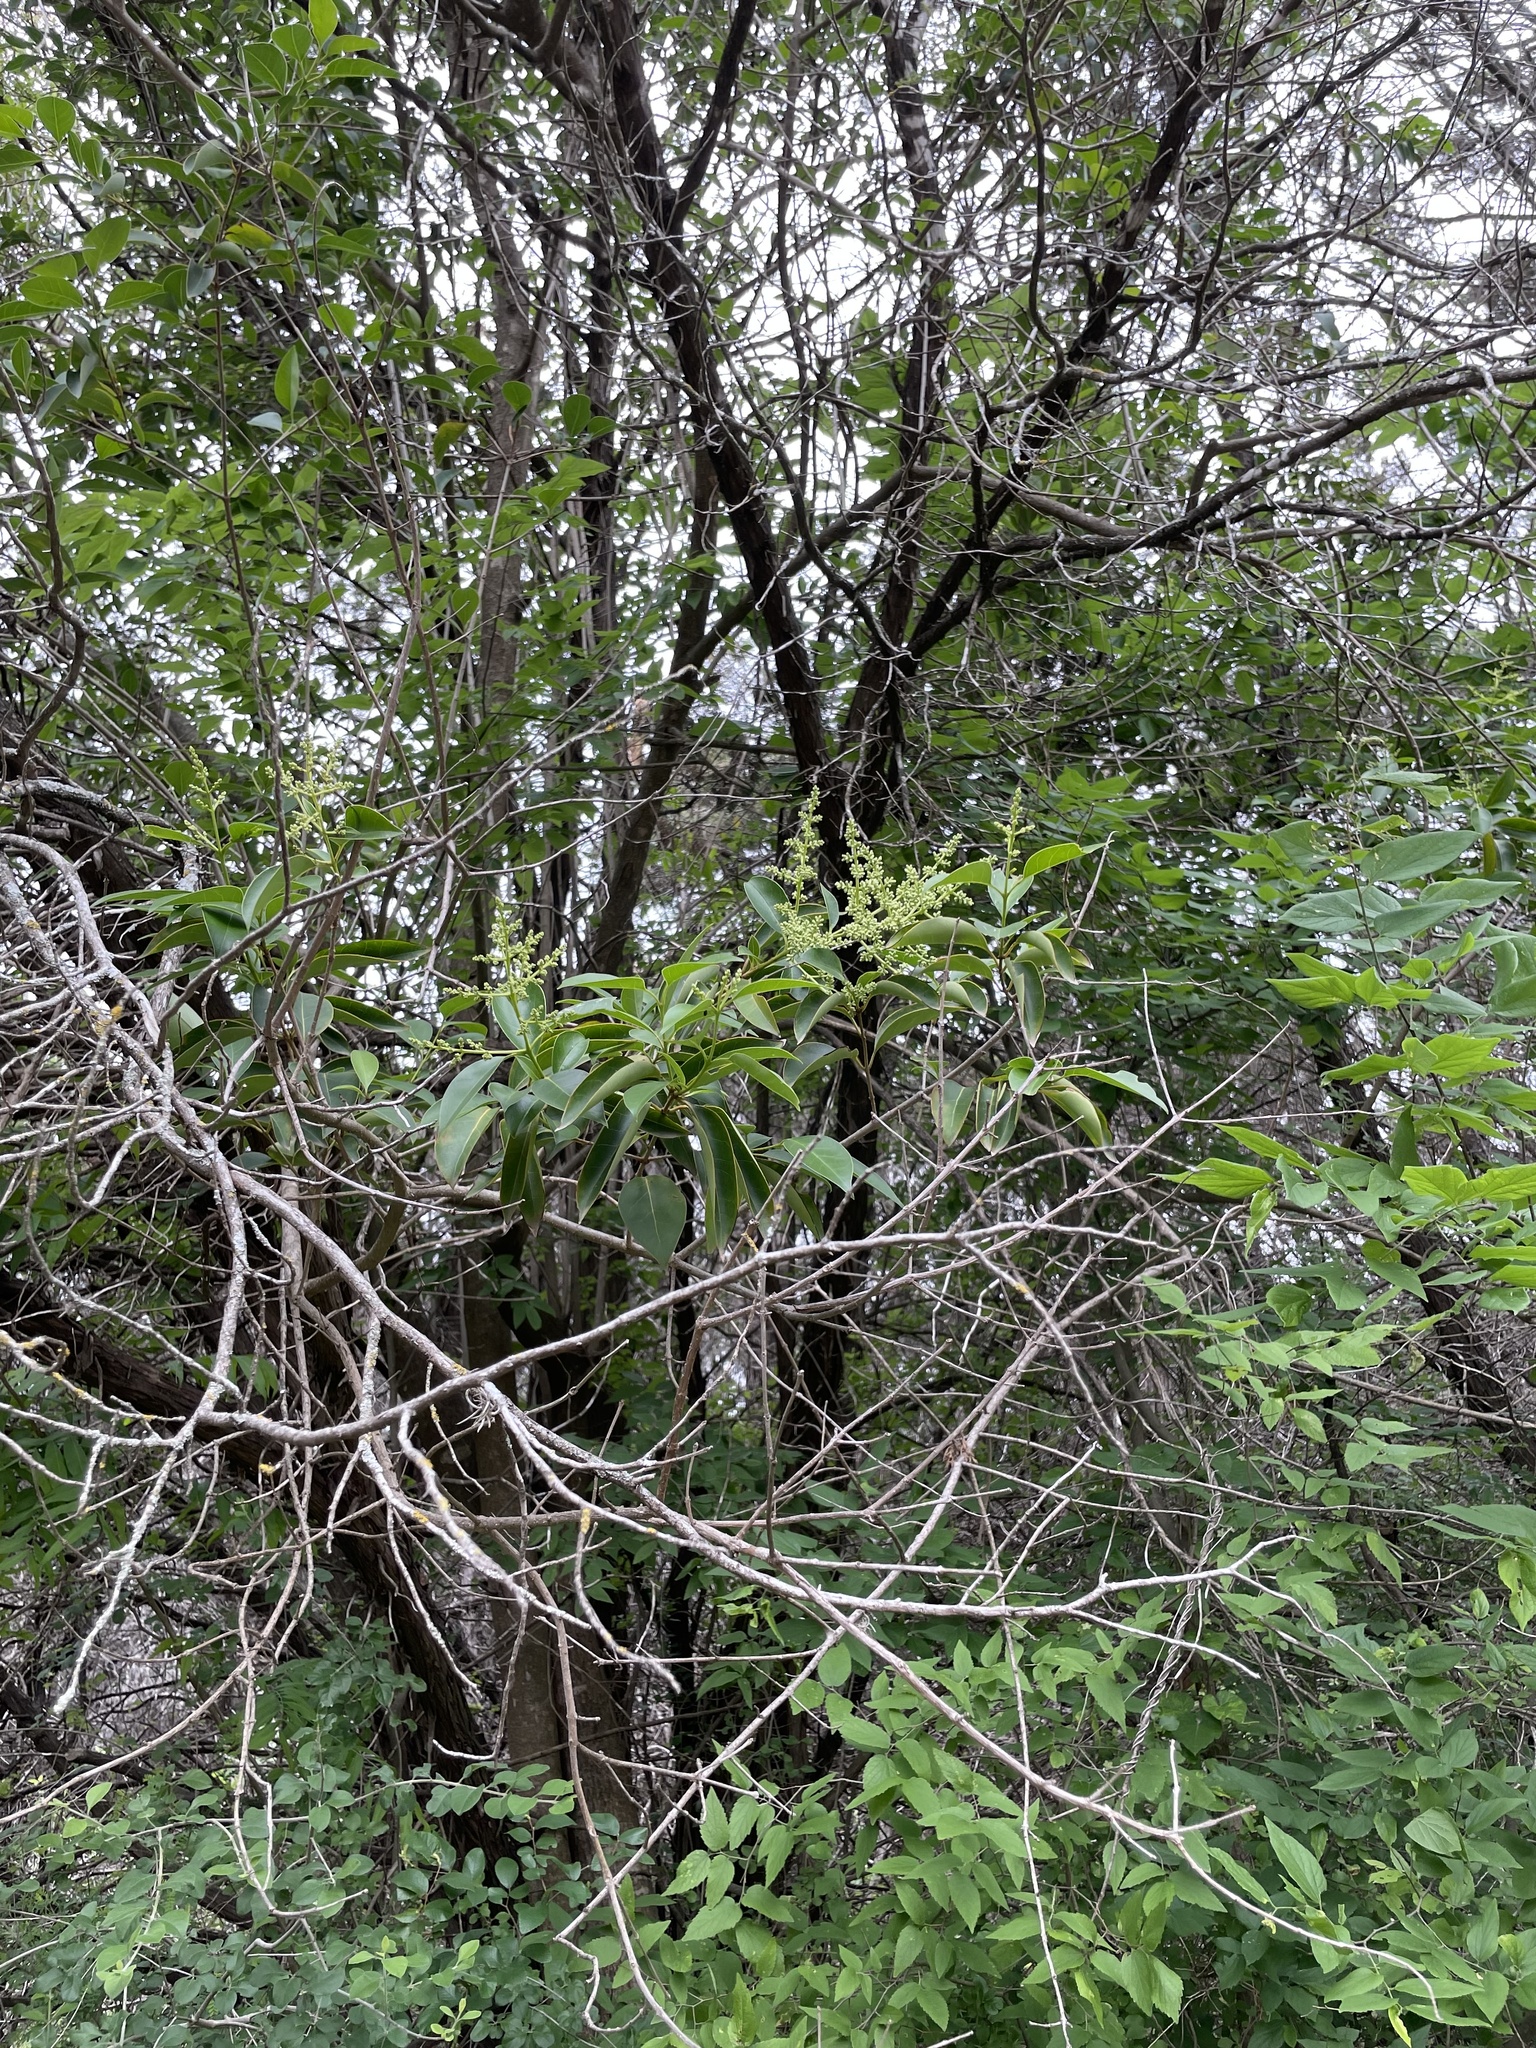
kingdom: Plantae
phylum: Tracheophyta
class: Magnoliopsida
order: Lamiales
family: Oleaceae
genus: Ligustrum
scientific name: Ligustrum lucidum
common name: Glossy privet
